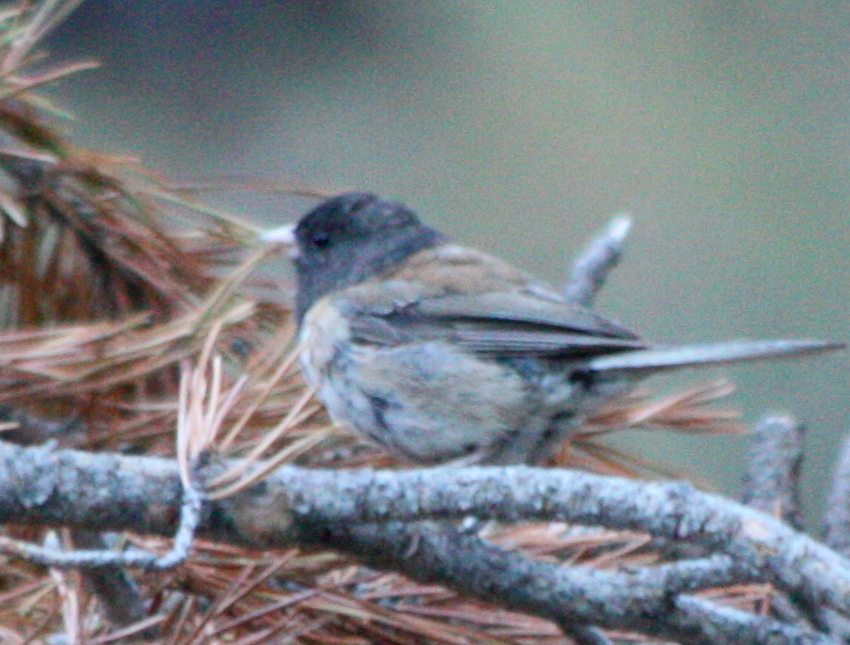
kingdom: Animalia
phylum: Chordata
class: Aves
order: Passeriformes
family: Passerellidae
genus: Junco
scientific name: Junco hyemalis
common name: Dark-eyed junco
